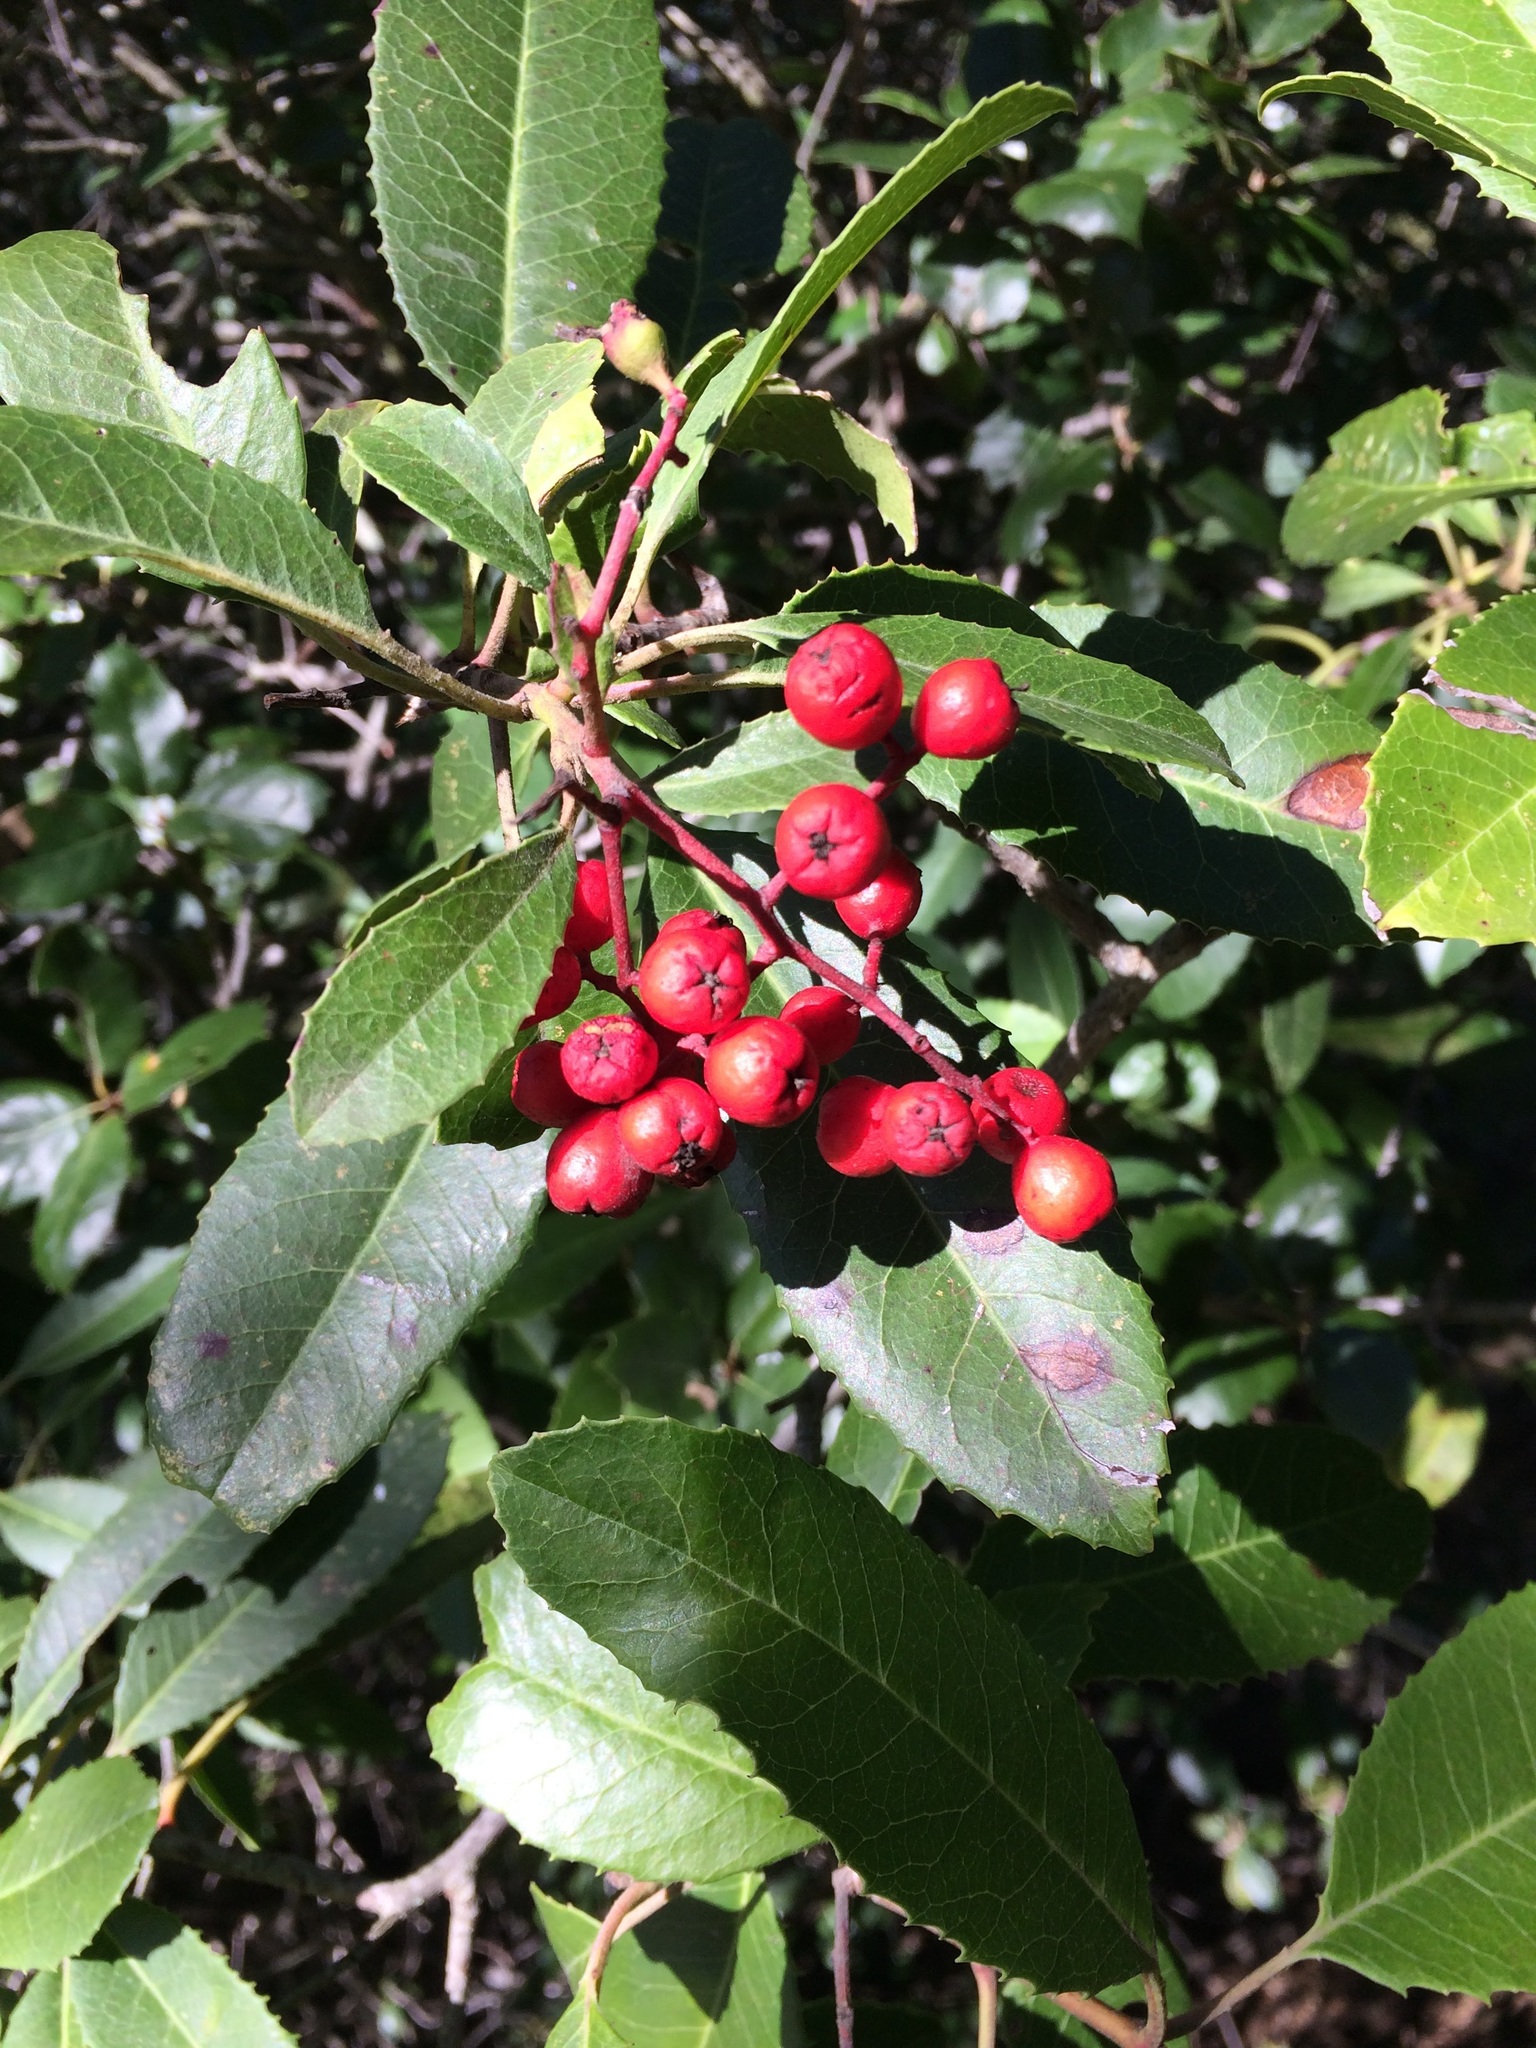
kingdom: Plantae
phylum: Tracheophyta
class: Magnoliopsida
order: Rosales
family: Rosaceae
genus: Heteromeles
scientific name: Heteromeles arbutifolia
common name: California-holly
